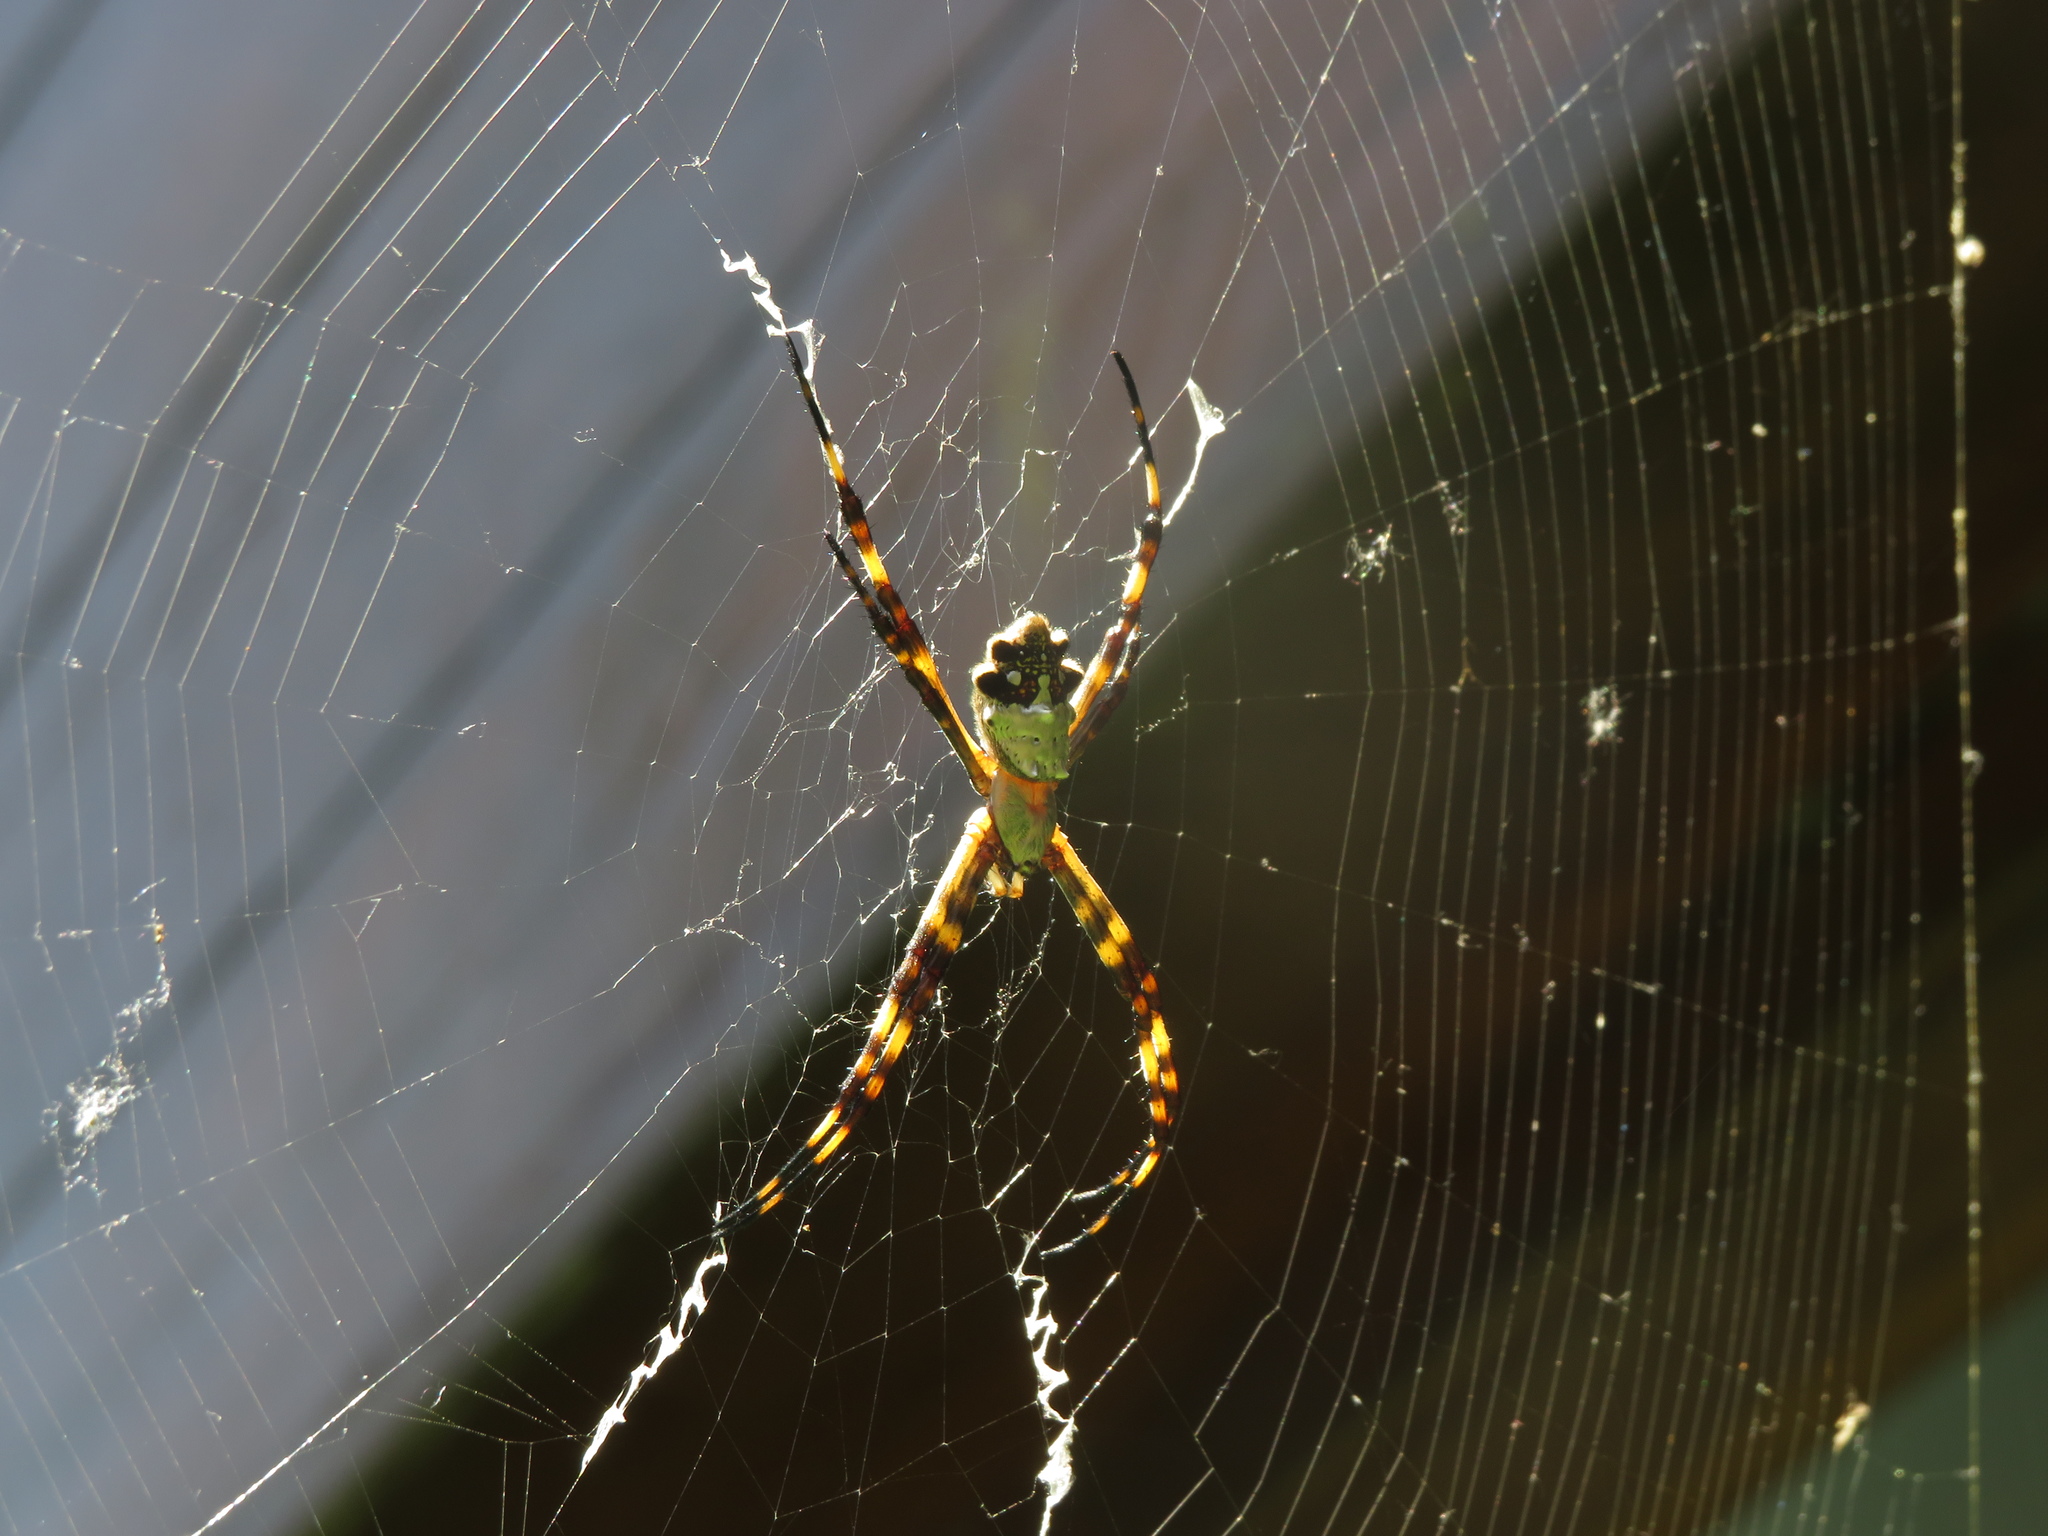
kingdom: Animalia
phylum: Arthropoda
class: Arachnida
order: Araneae
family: Araneidae
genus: Argiope
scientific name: Argiope argentata
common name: Orb weavers
